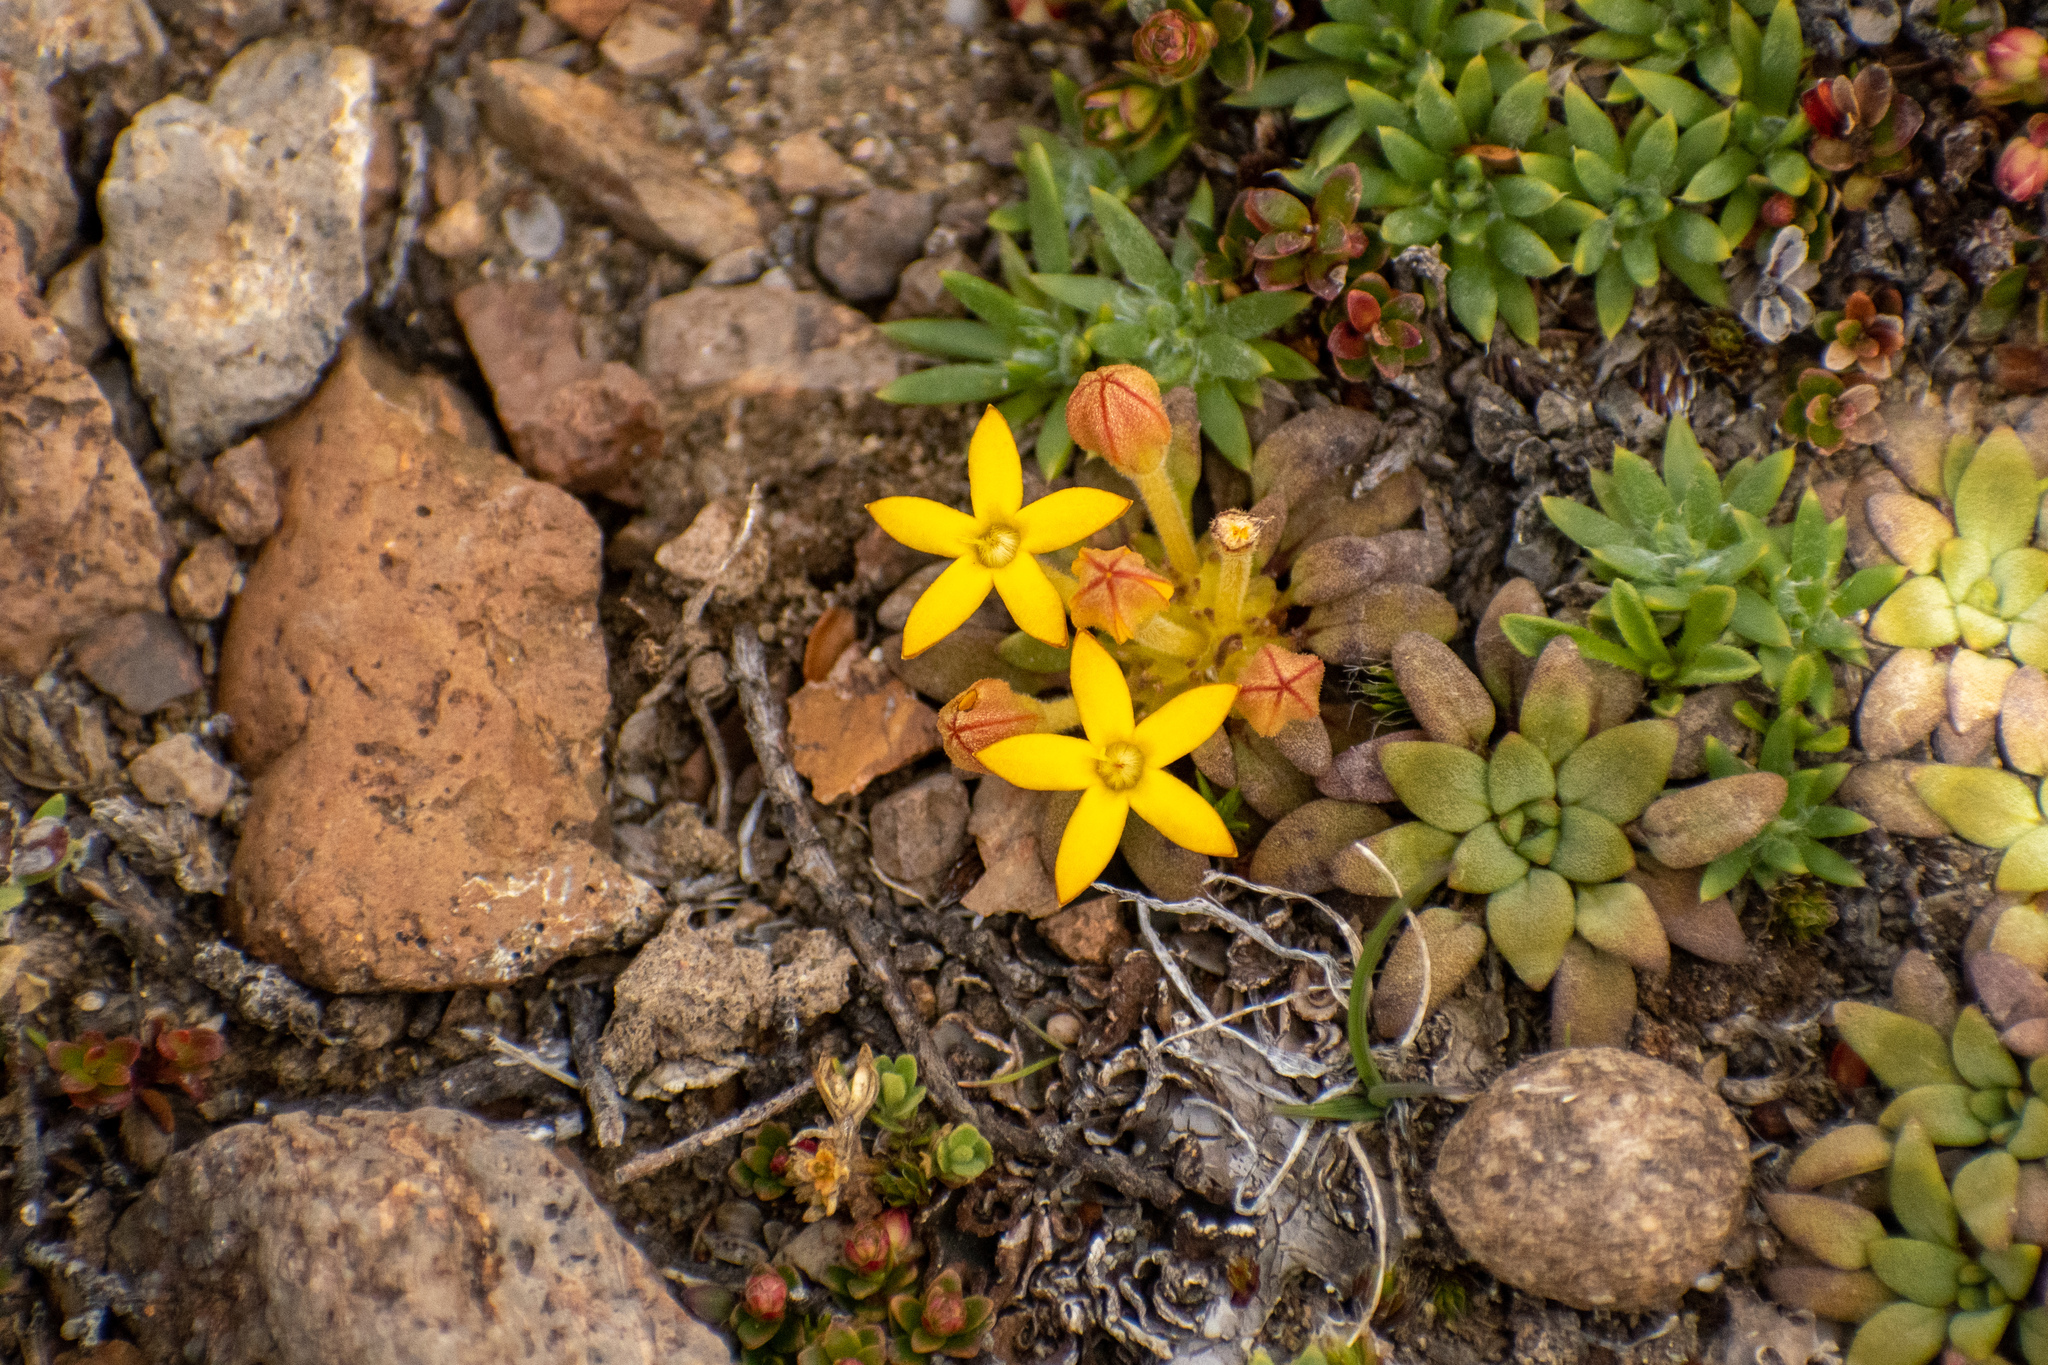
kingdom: Plantae
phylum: Tracheophyta
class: Magnoliopsida
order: Gentianales
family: Rubiaceae
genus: Oreopolus
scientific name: Oreopolus glacialis
